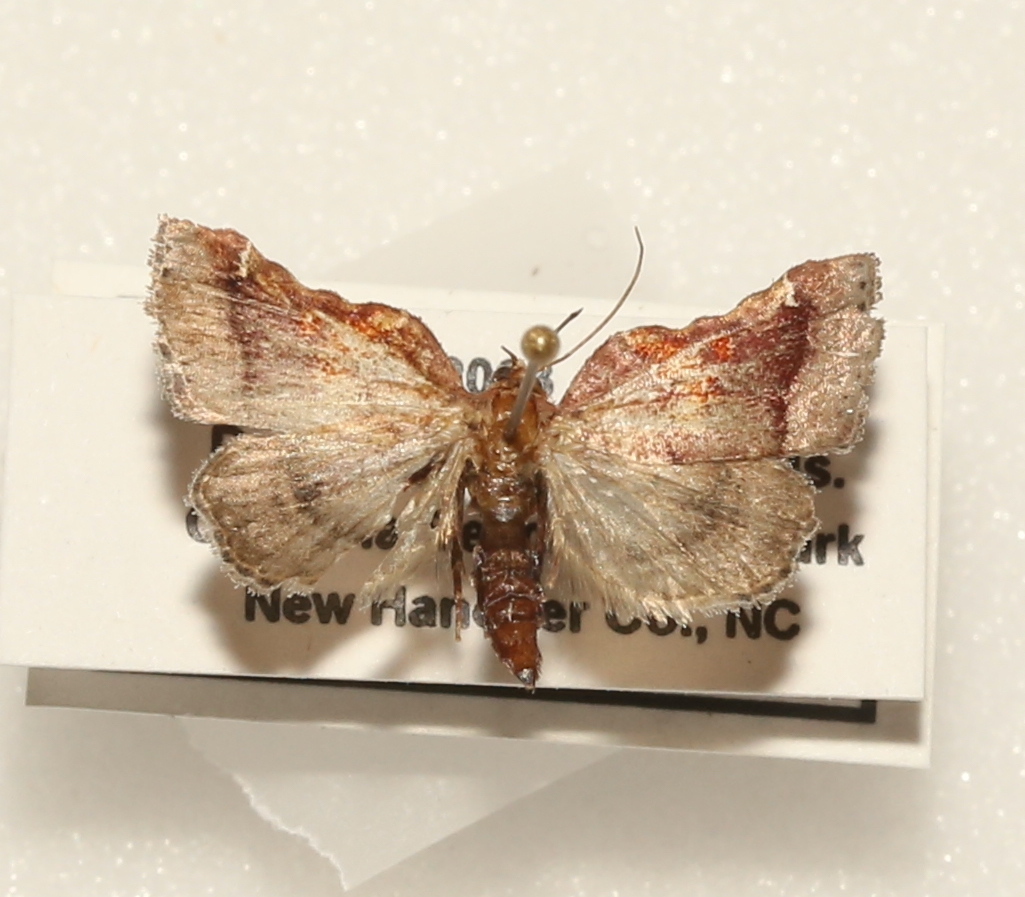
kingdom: Animalia
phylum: Arthropoda
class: Insecta
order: Lepidoptera
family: Pyralidae
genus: Clydonopteron
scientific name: Clydonopteron sacculana
